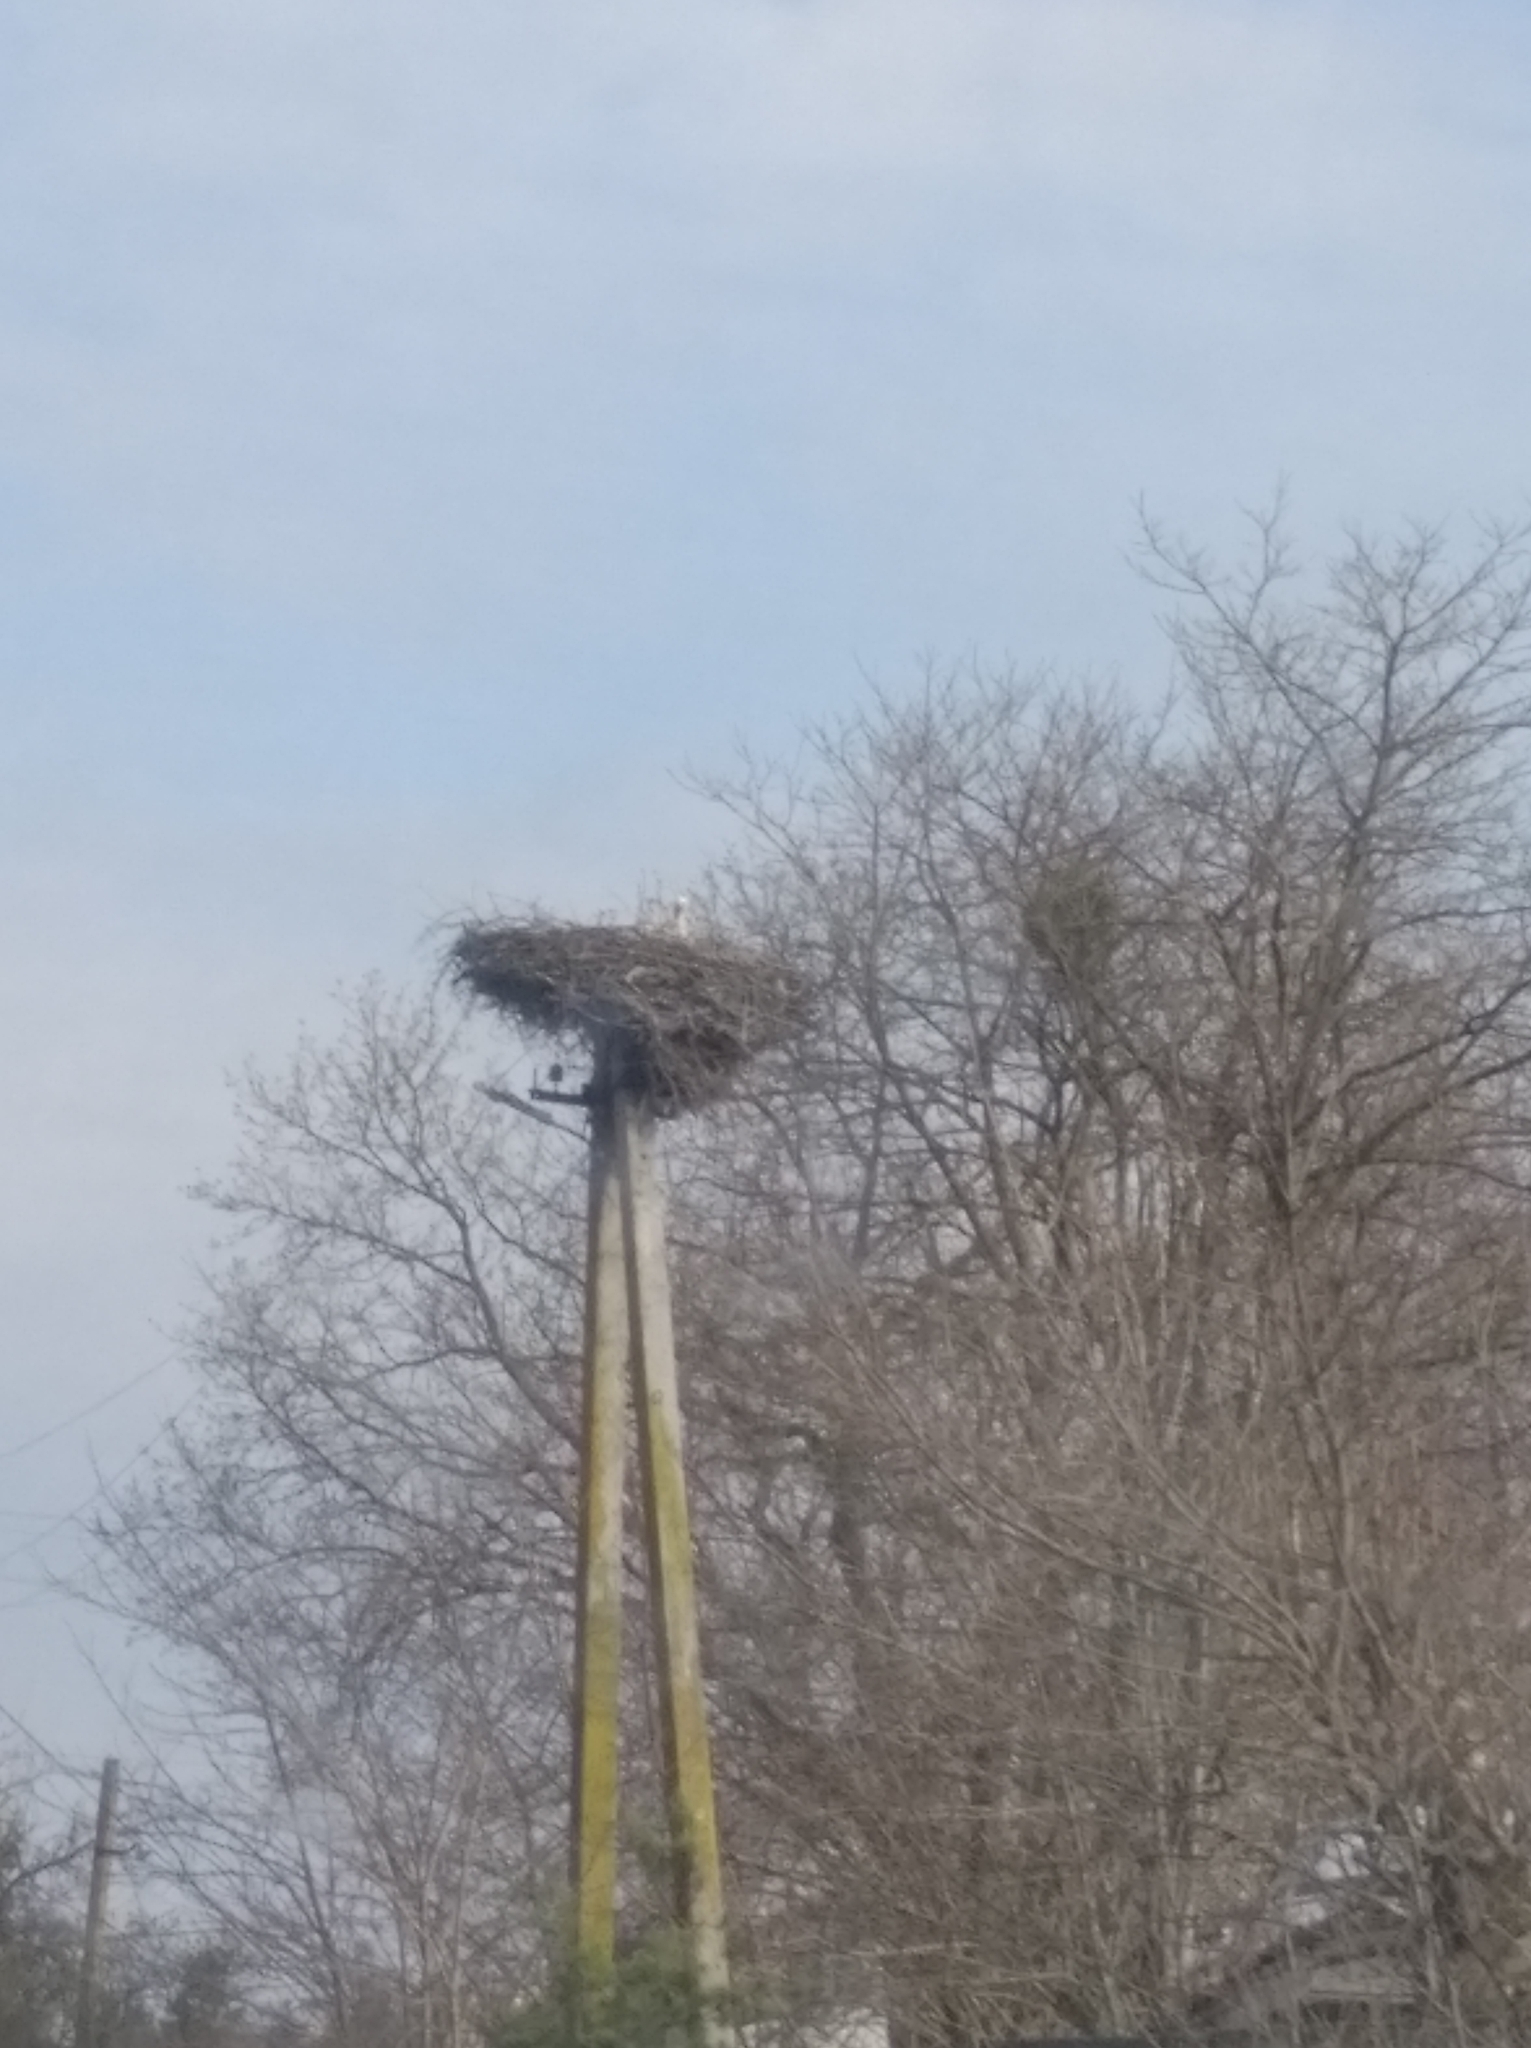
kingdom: Animalia
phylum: Chordata
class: Aves
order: Ciconiiformes
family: Ciconiidae
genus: Ciconia
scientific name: Ciconia ciconia
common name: White stork
